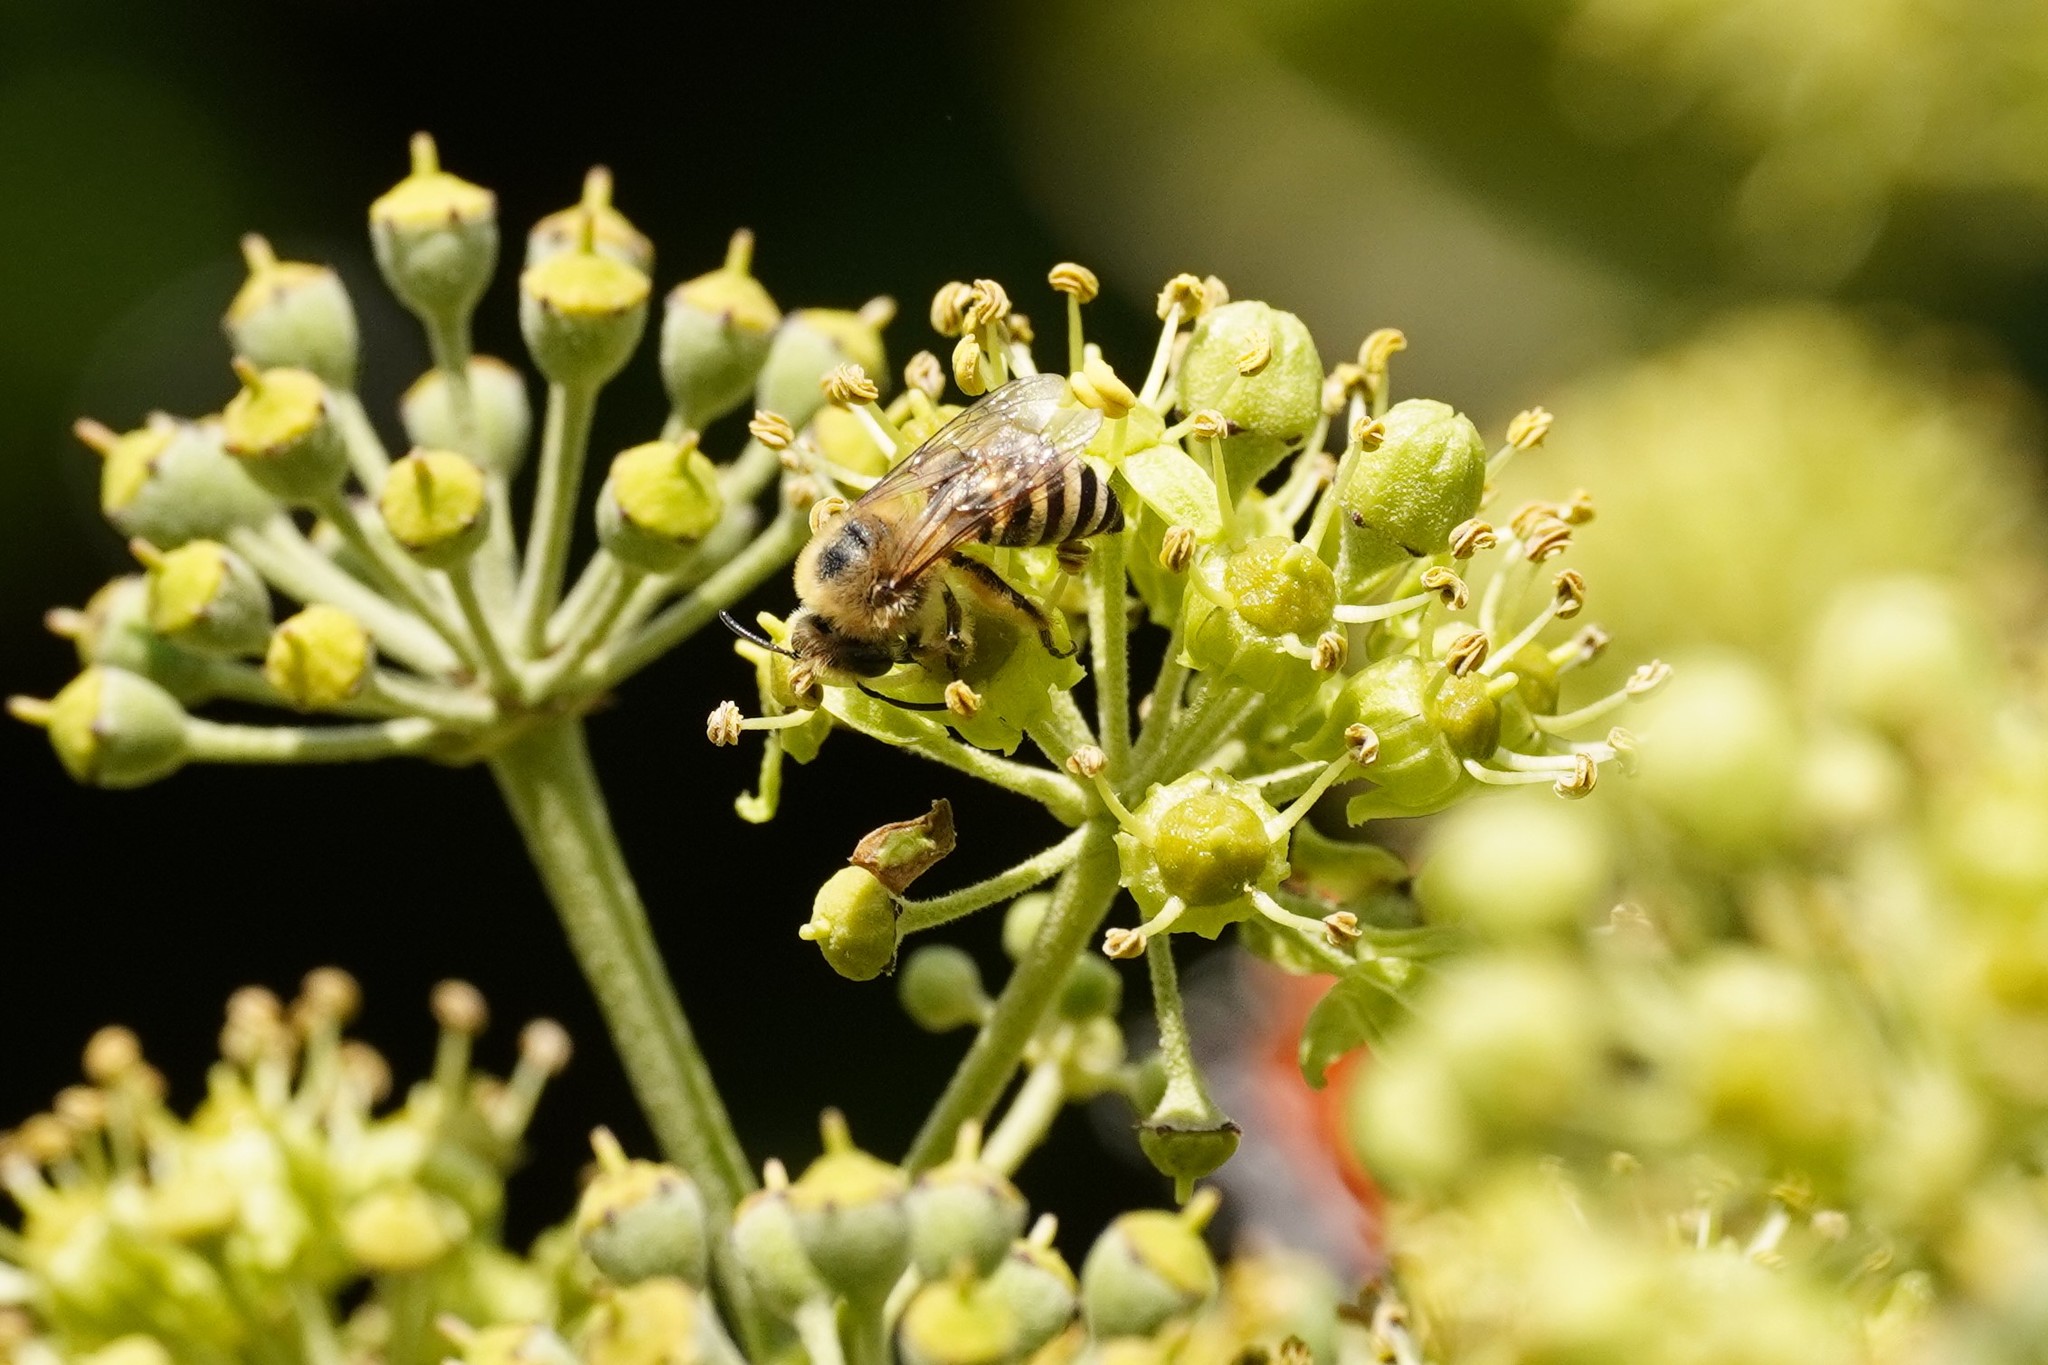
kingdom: Animalia
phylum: Arthropoda
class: Insecta
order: Hymenoptera
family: Colletidae
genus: Colletes
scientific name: Colletes hederae
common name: Ivy bee
